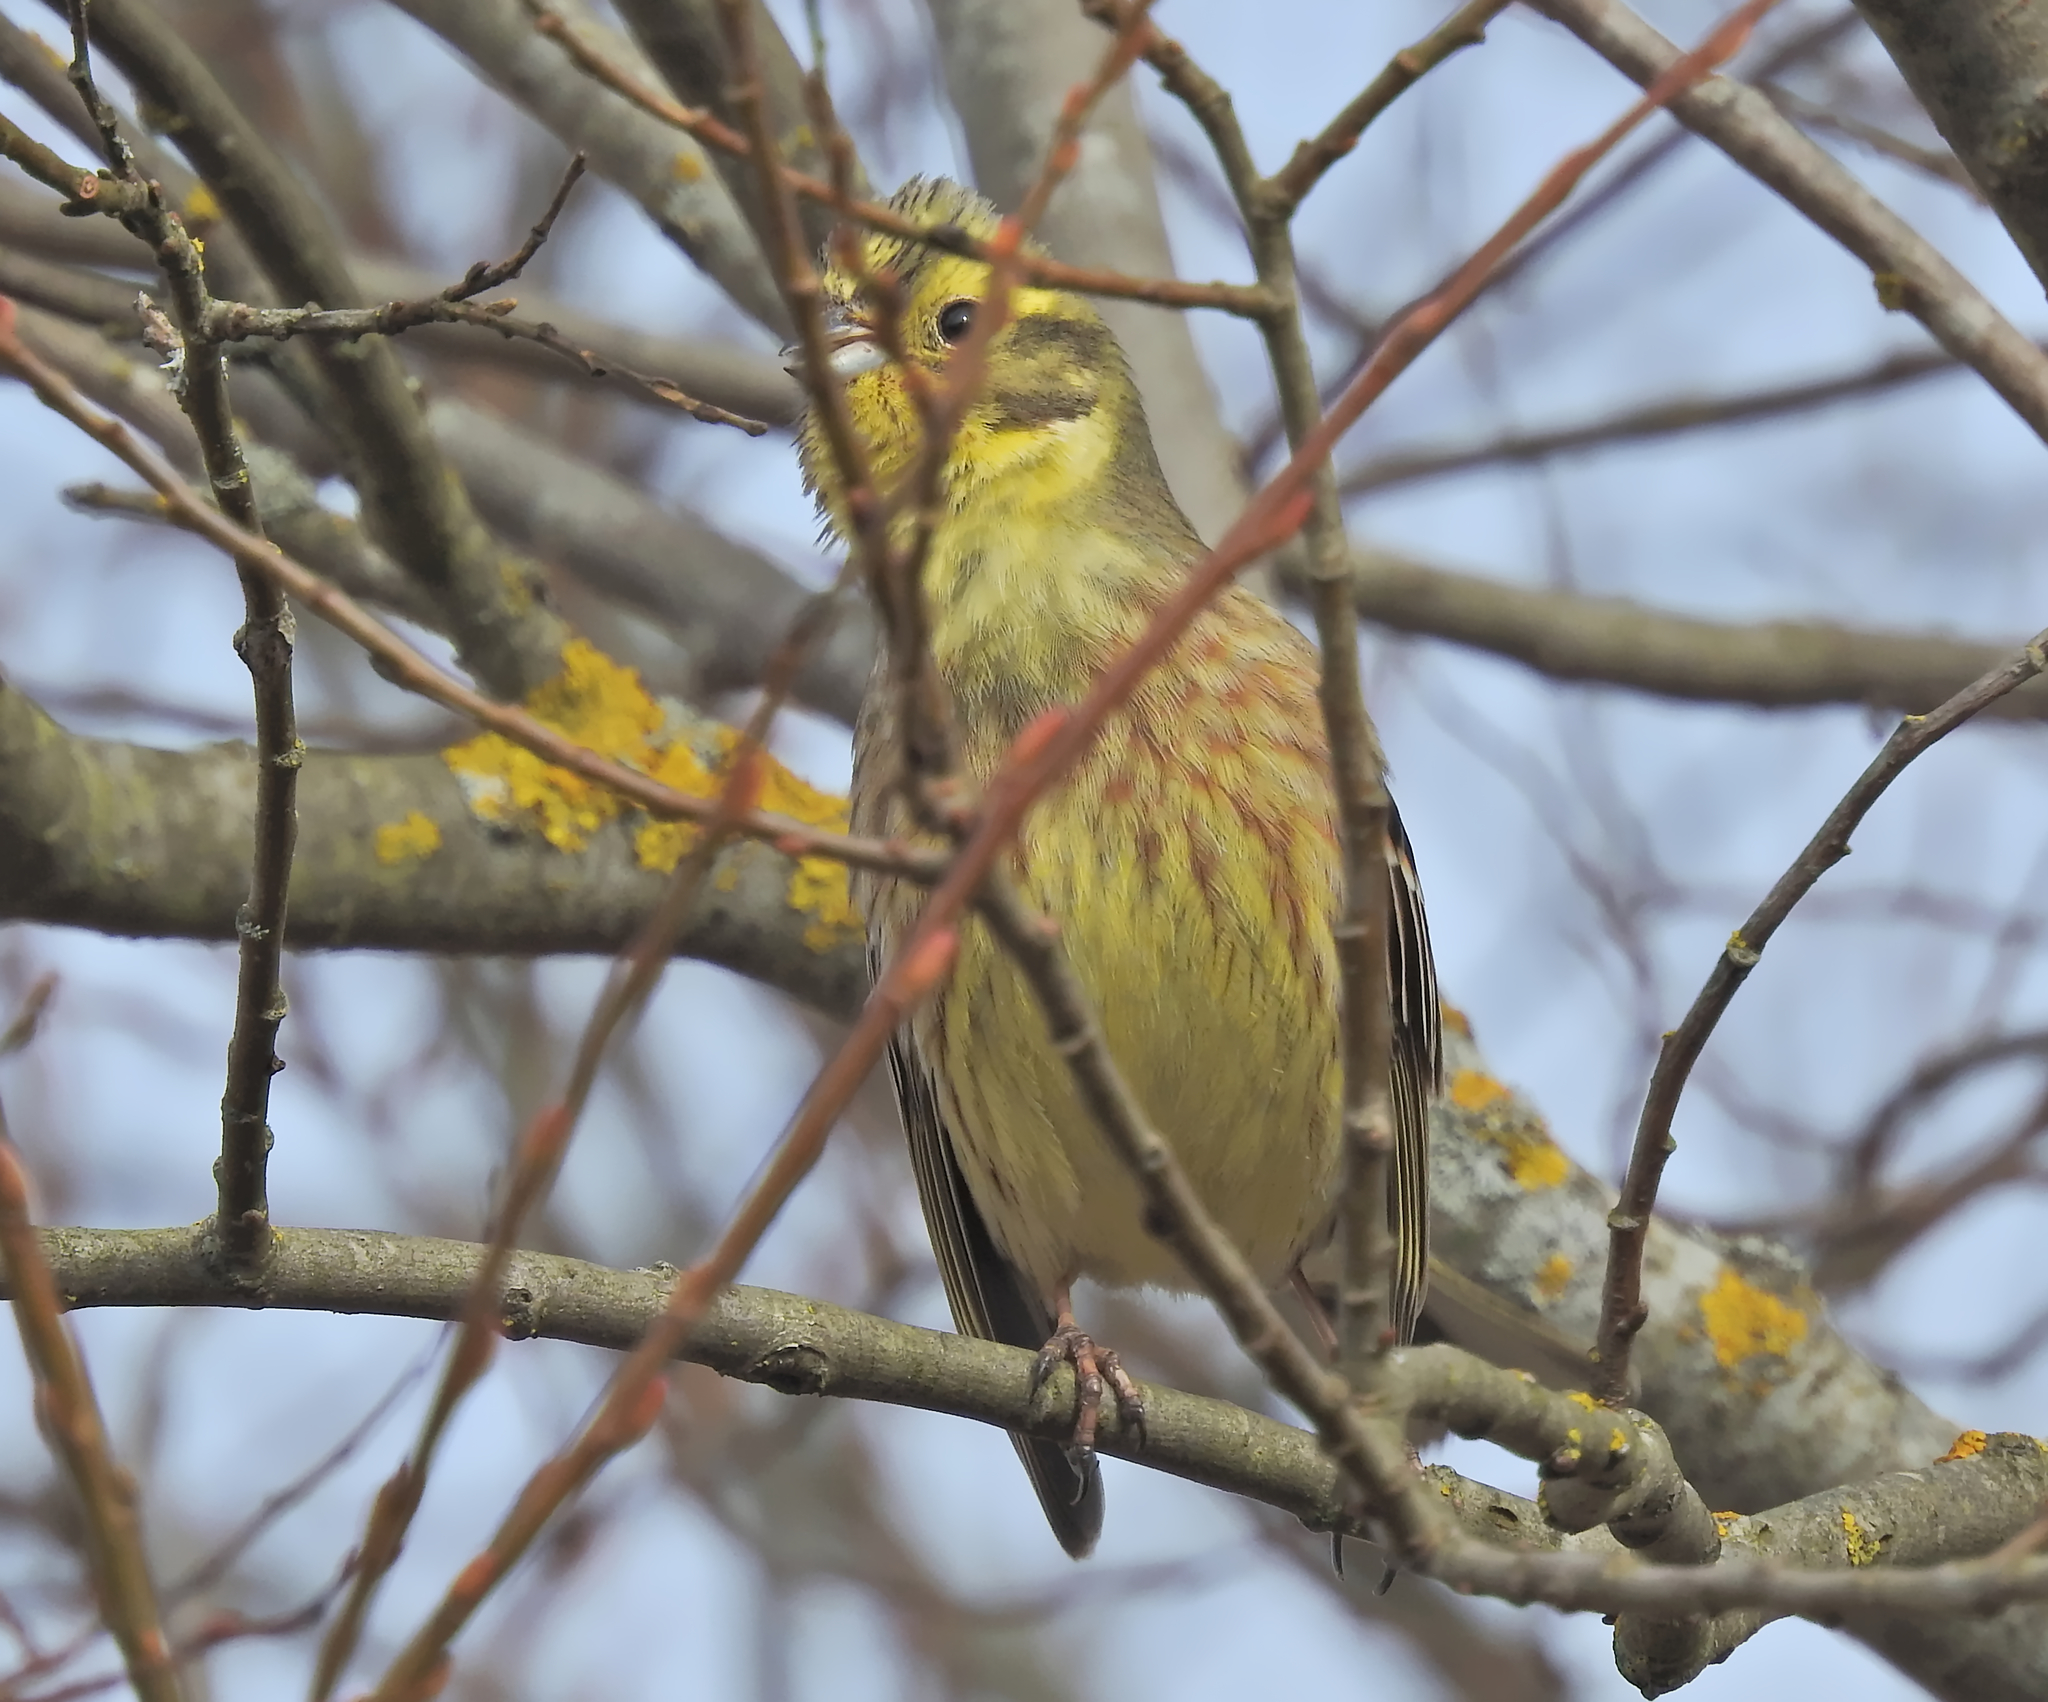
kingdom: Animalia
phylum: Chordata
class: Aves
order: Passeriformes
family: Emberizidae
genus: Emberiza
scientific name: Emberiza citrinella
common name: Yellowhammer
